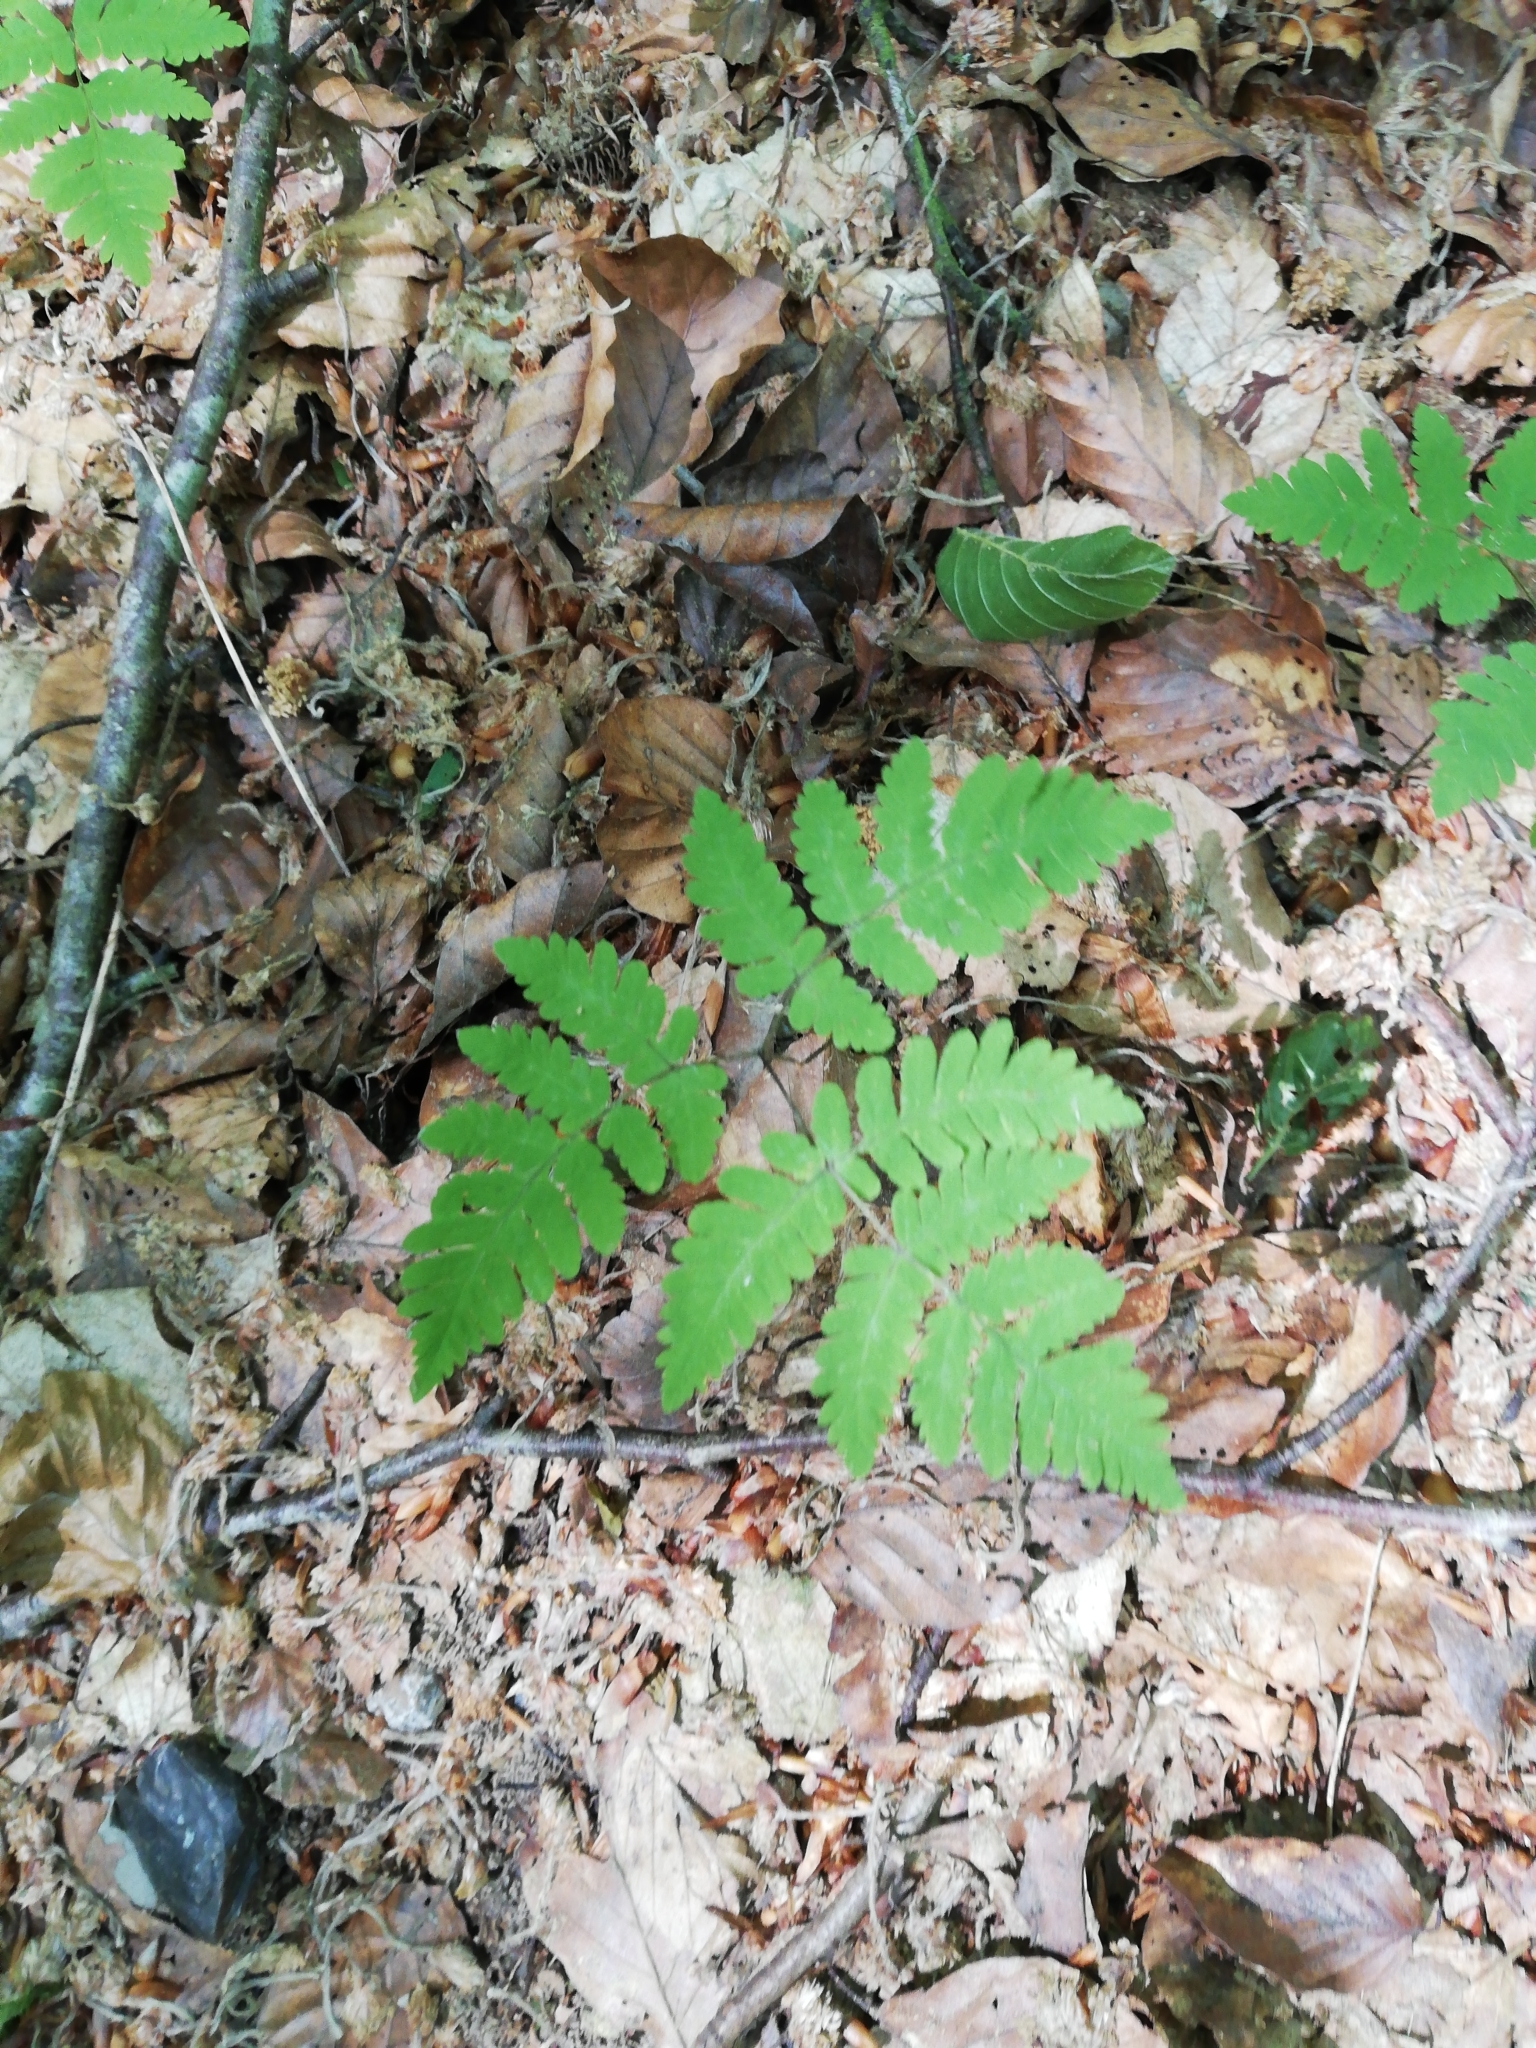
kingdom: Plantae
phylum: Tracheophyta
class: Polypodiopsida
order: Polypodiales
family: Cystopteridaceae
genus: Gymnocarpium
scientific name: Gymnocarpium dryopteris
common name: Oak fern
